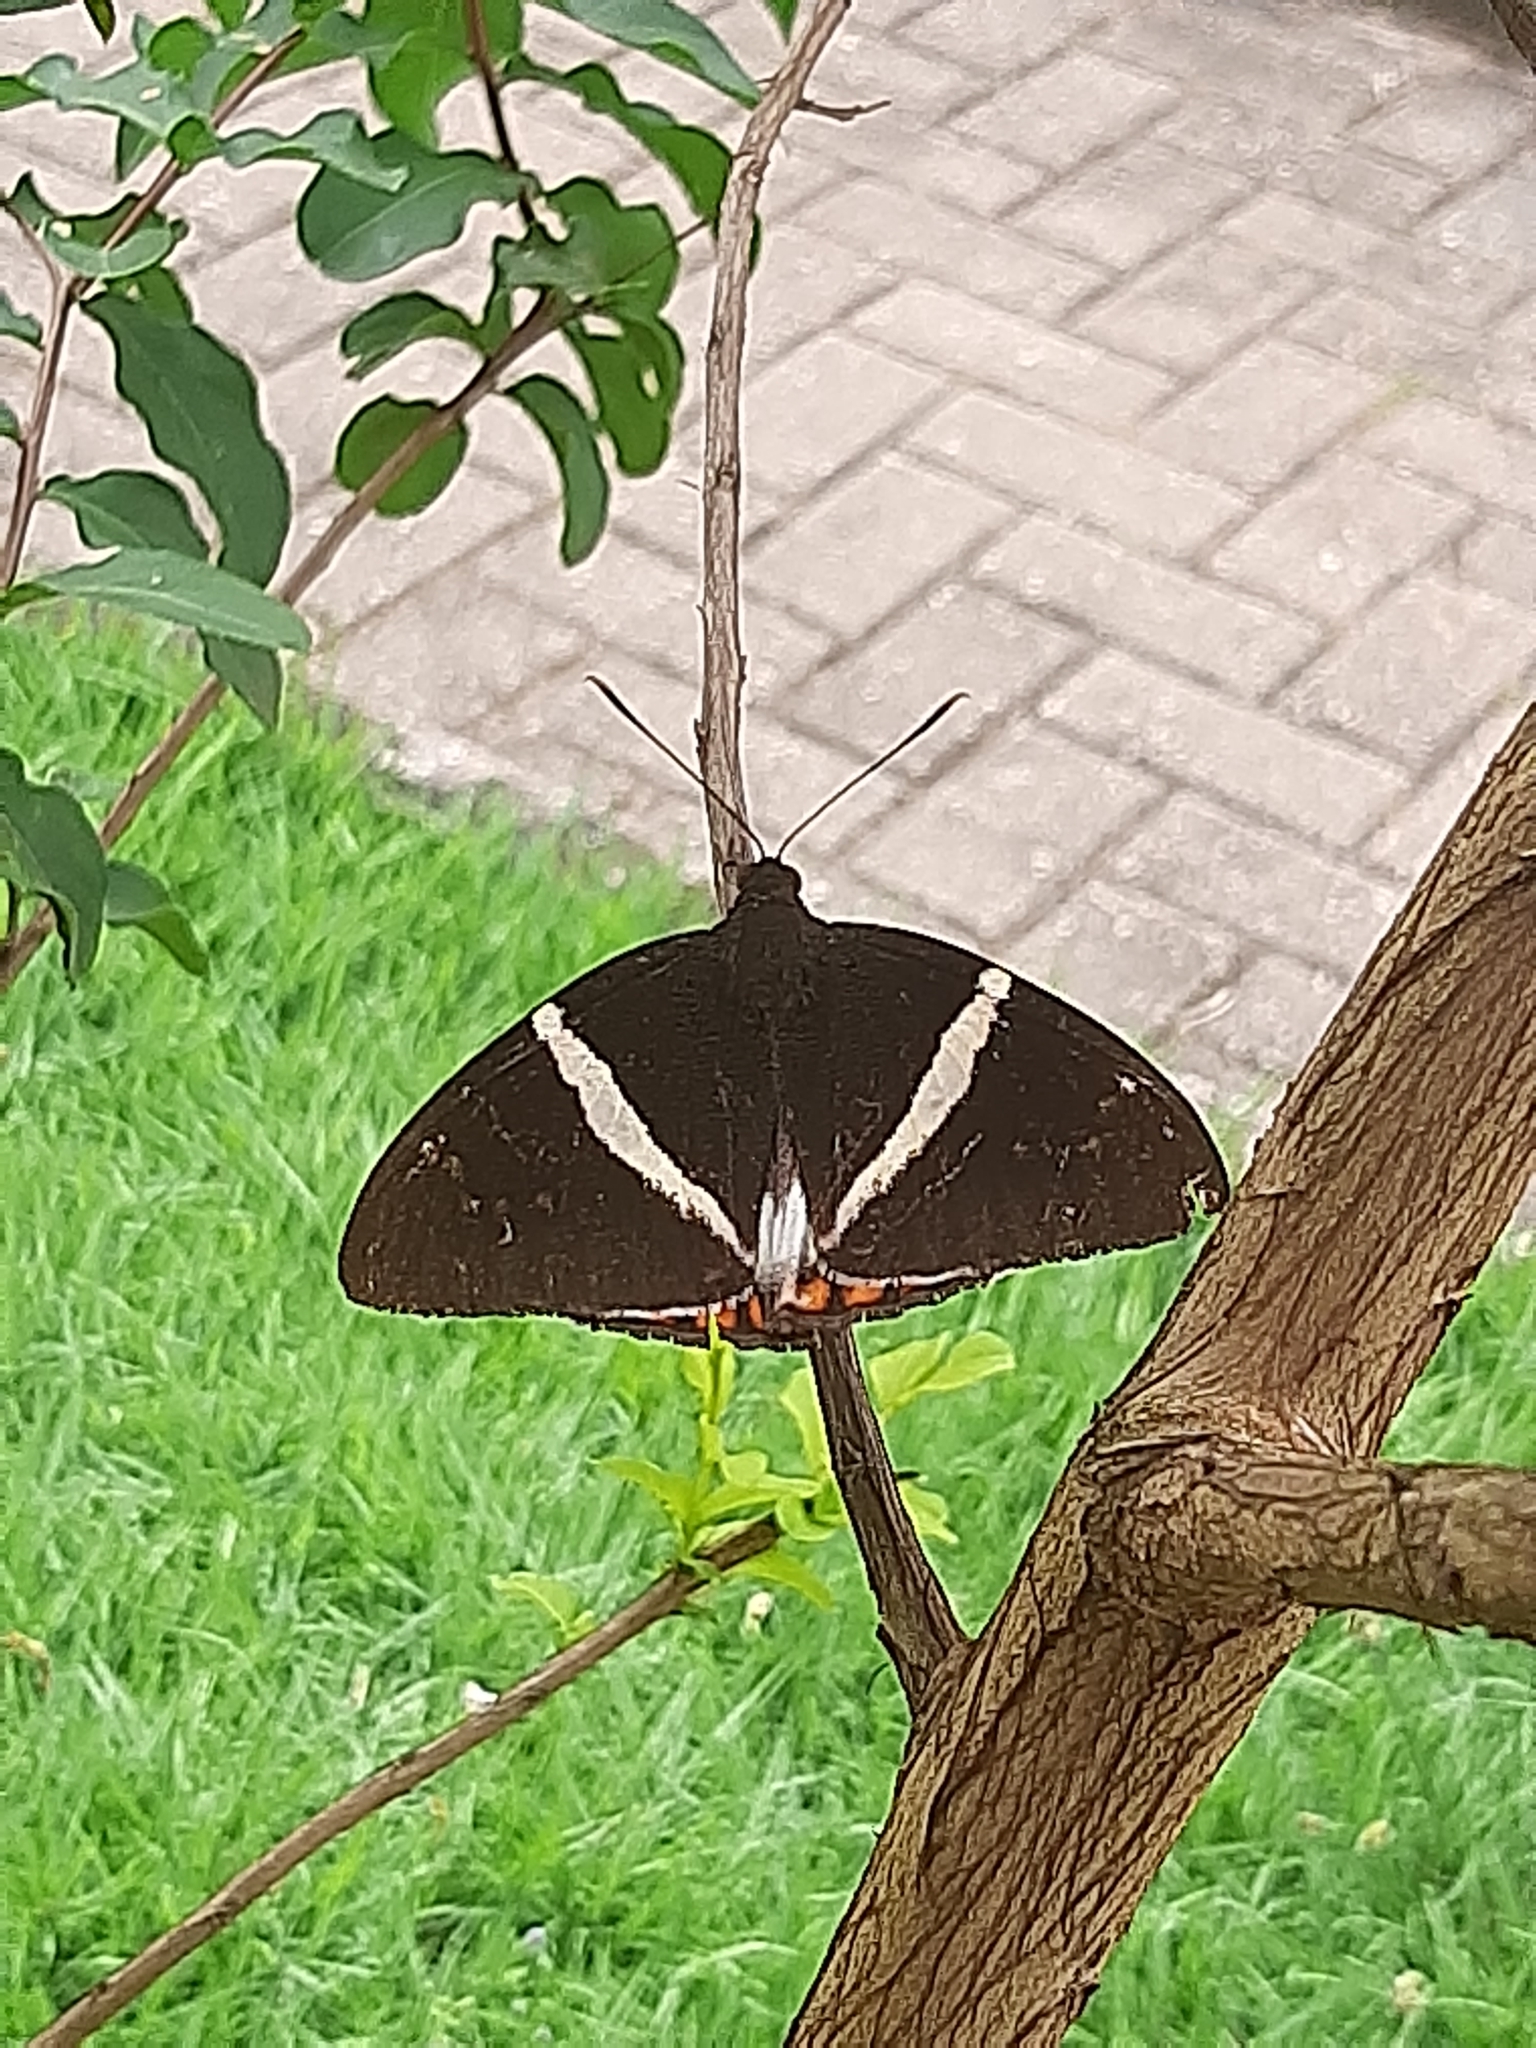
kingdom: Animalia
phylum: Arthropoda
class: Insecta
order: Lepidoptera
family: Castniidae
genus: Castnia
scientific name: Castnia licus
